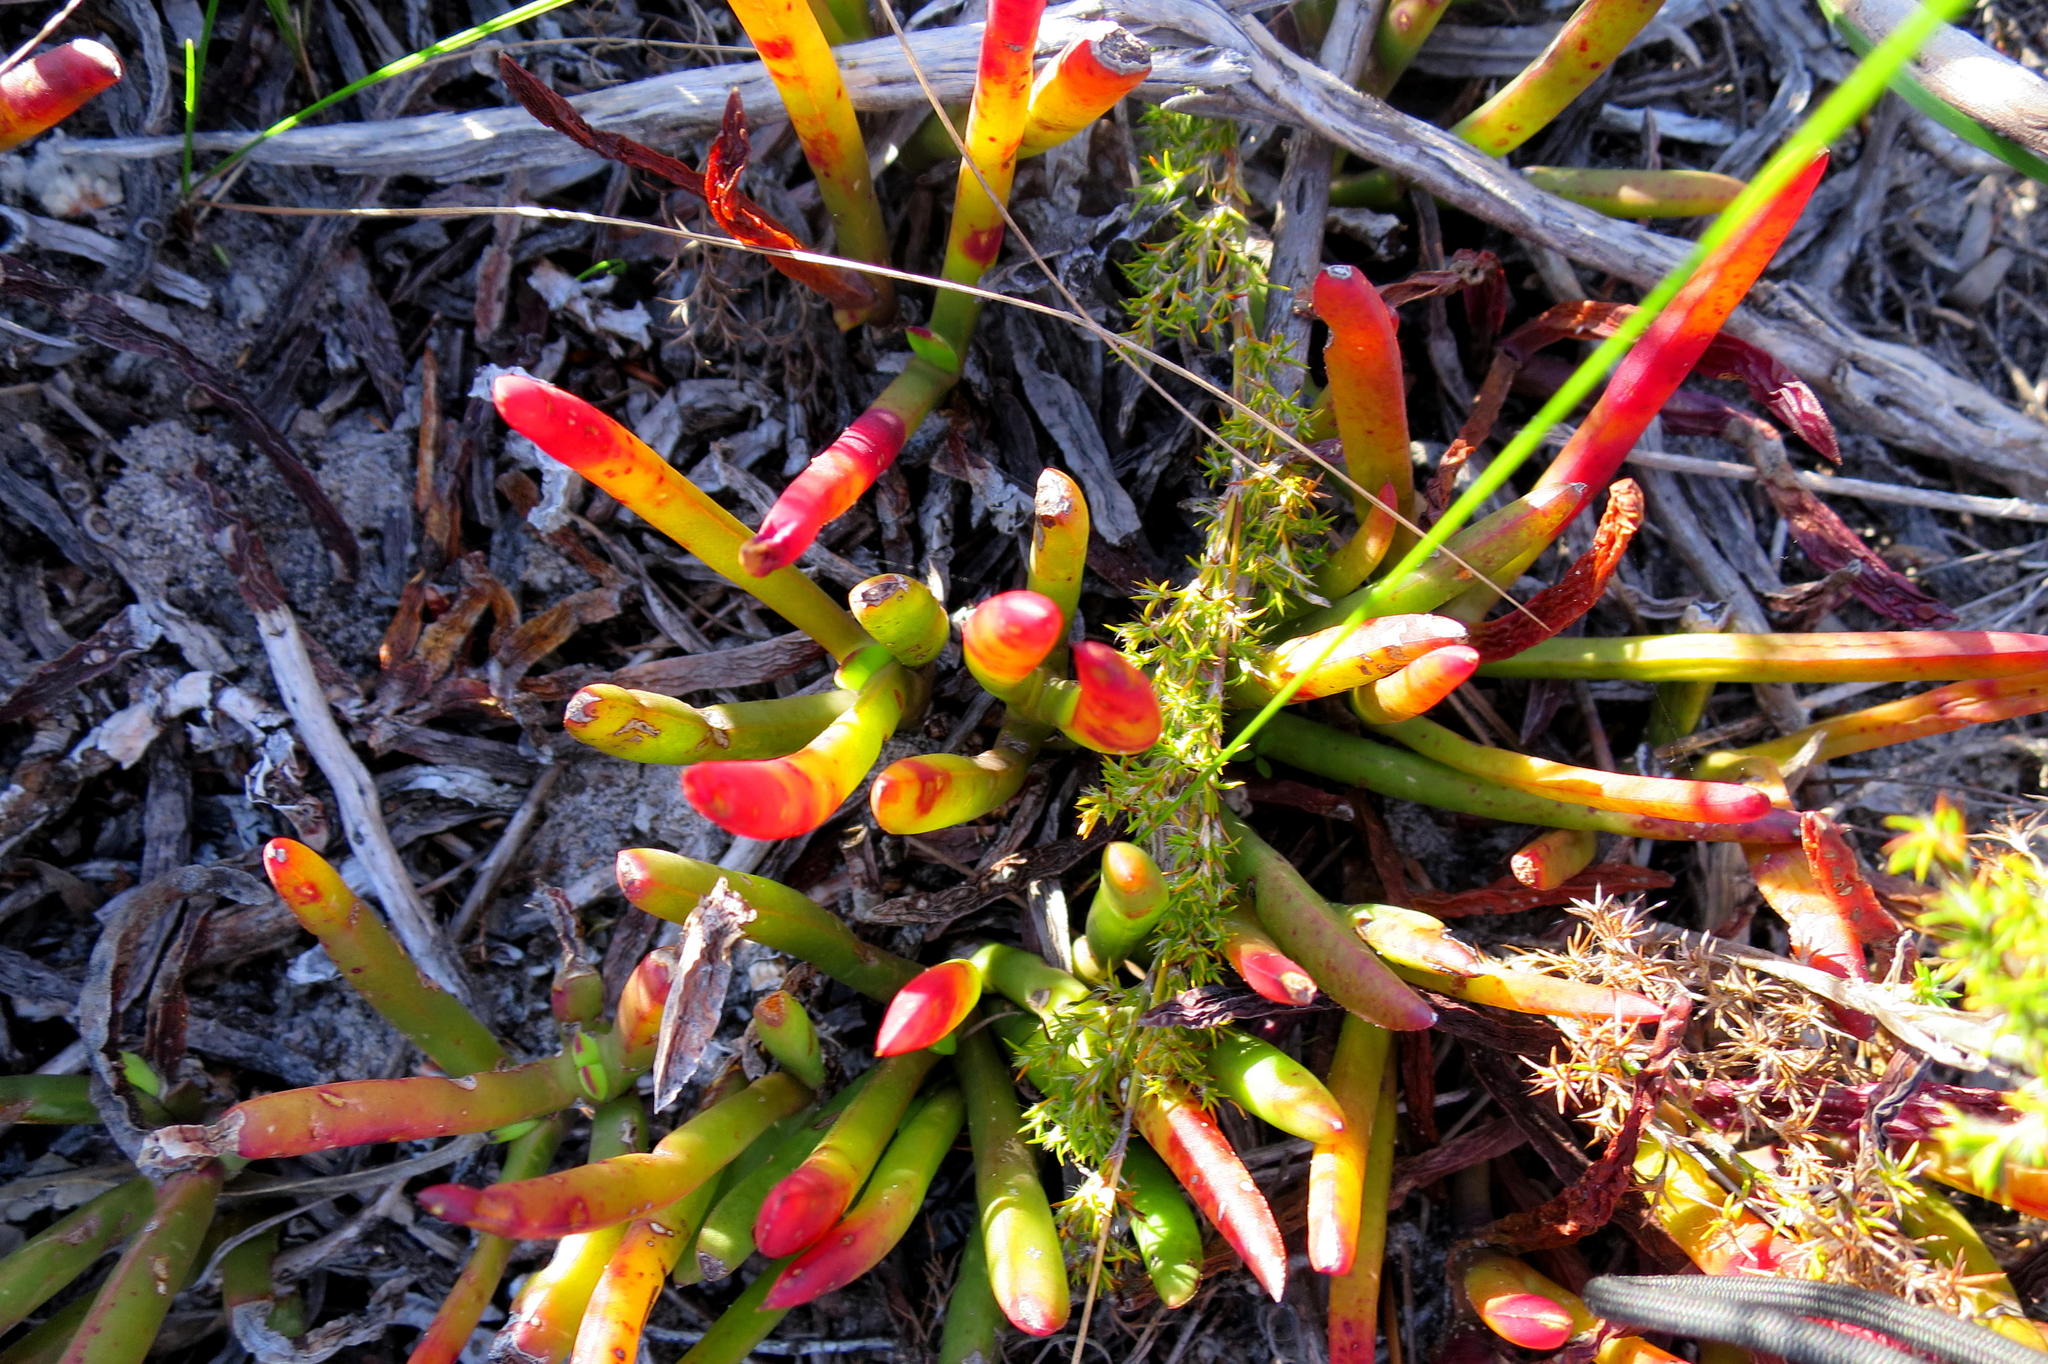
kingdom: Plantae
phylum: Tracheophyta
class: Magnoliopsida
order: Caryophyllales
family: Aizoaceae
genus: Carpobrotus
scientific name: Carpobrotus muirii
